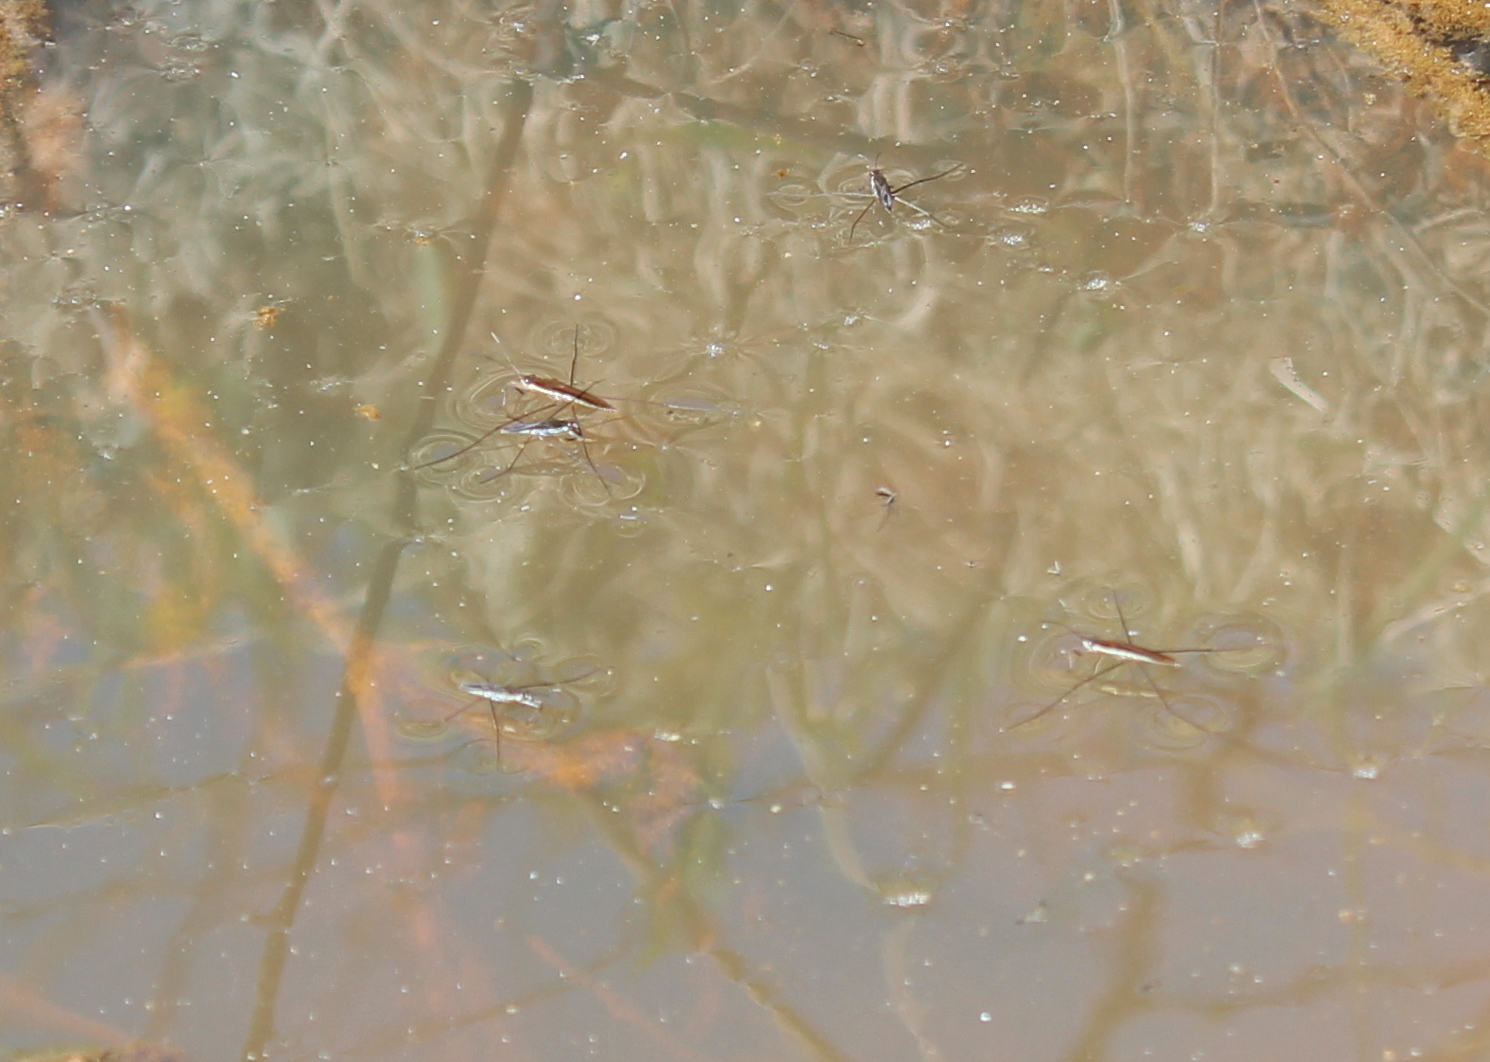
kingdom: Animalia
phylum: Arthropoda
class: Insecta
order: Hemiptera
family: Gerridae
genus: Limnoporus
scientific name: Limnoporus dissortis
